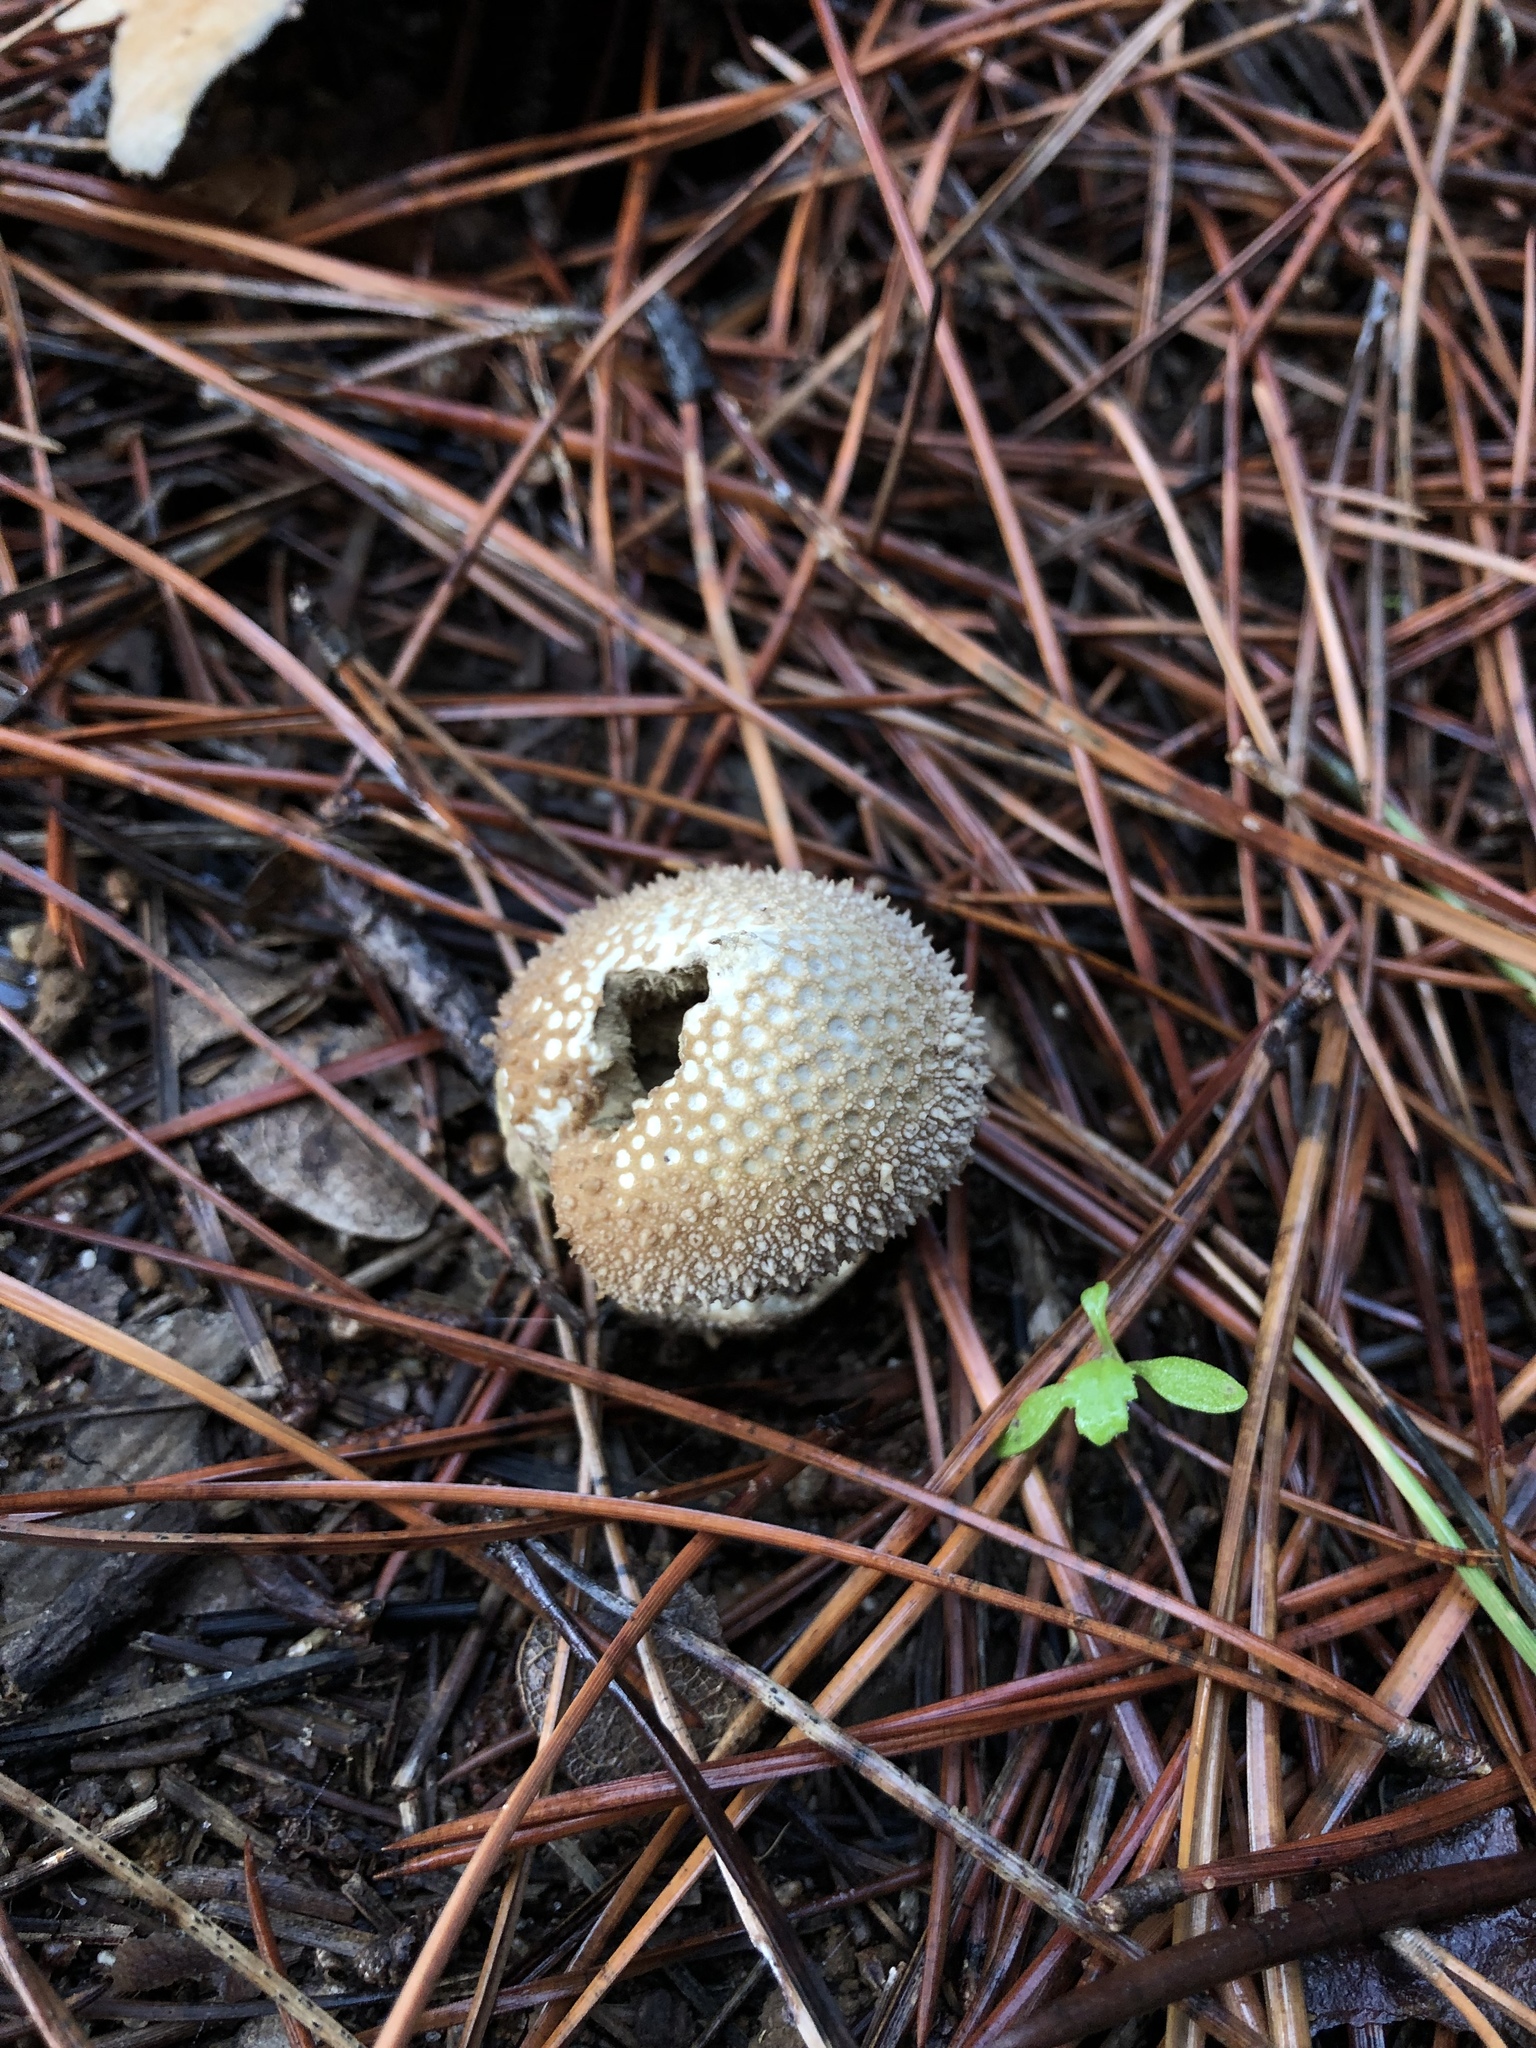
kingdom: Fungi
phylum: Basidiomycota
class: Agaricomycetes
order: Agaricales
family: Lycoperdaceae
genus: Lycoperdon
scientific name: Lycoperdon perlatum
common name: Common puffball
